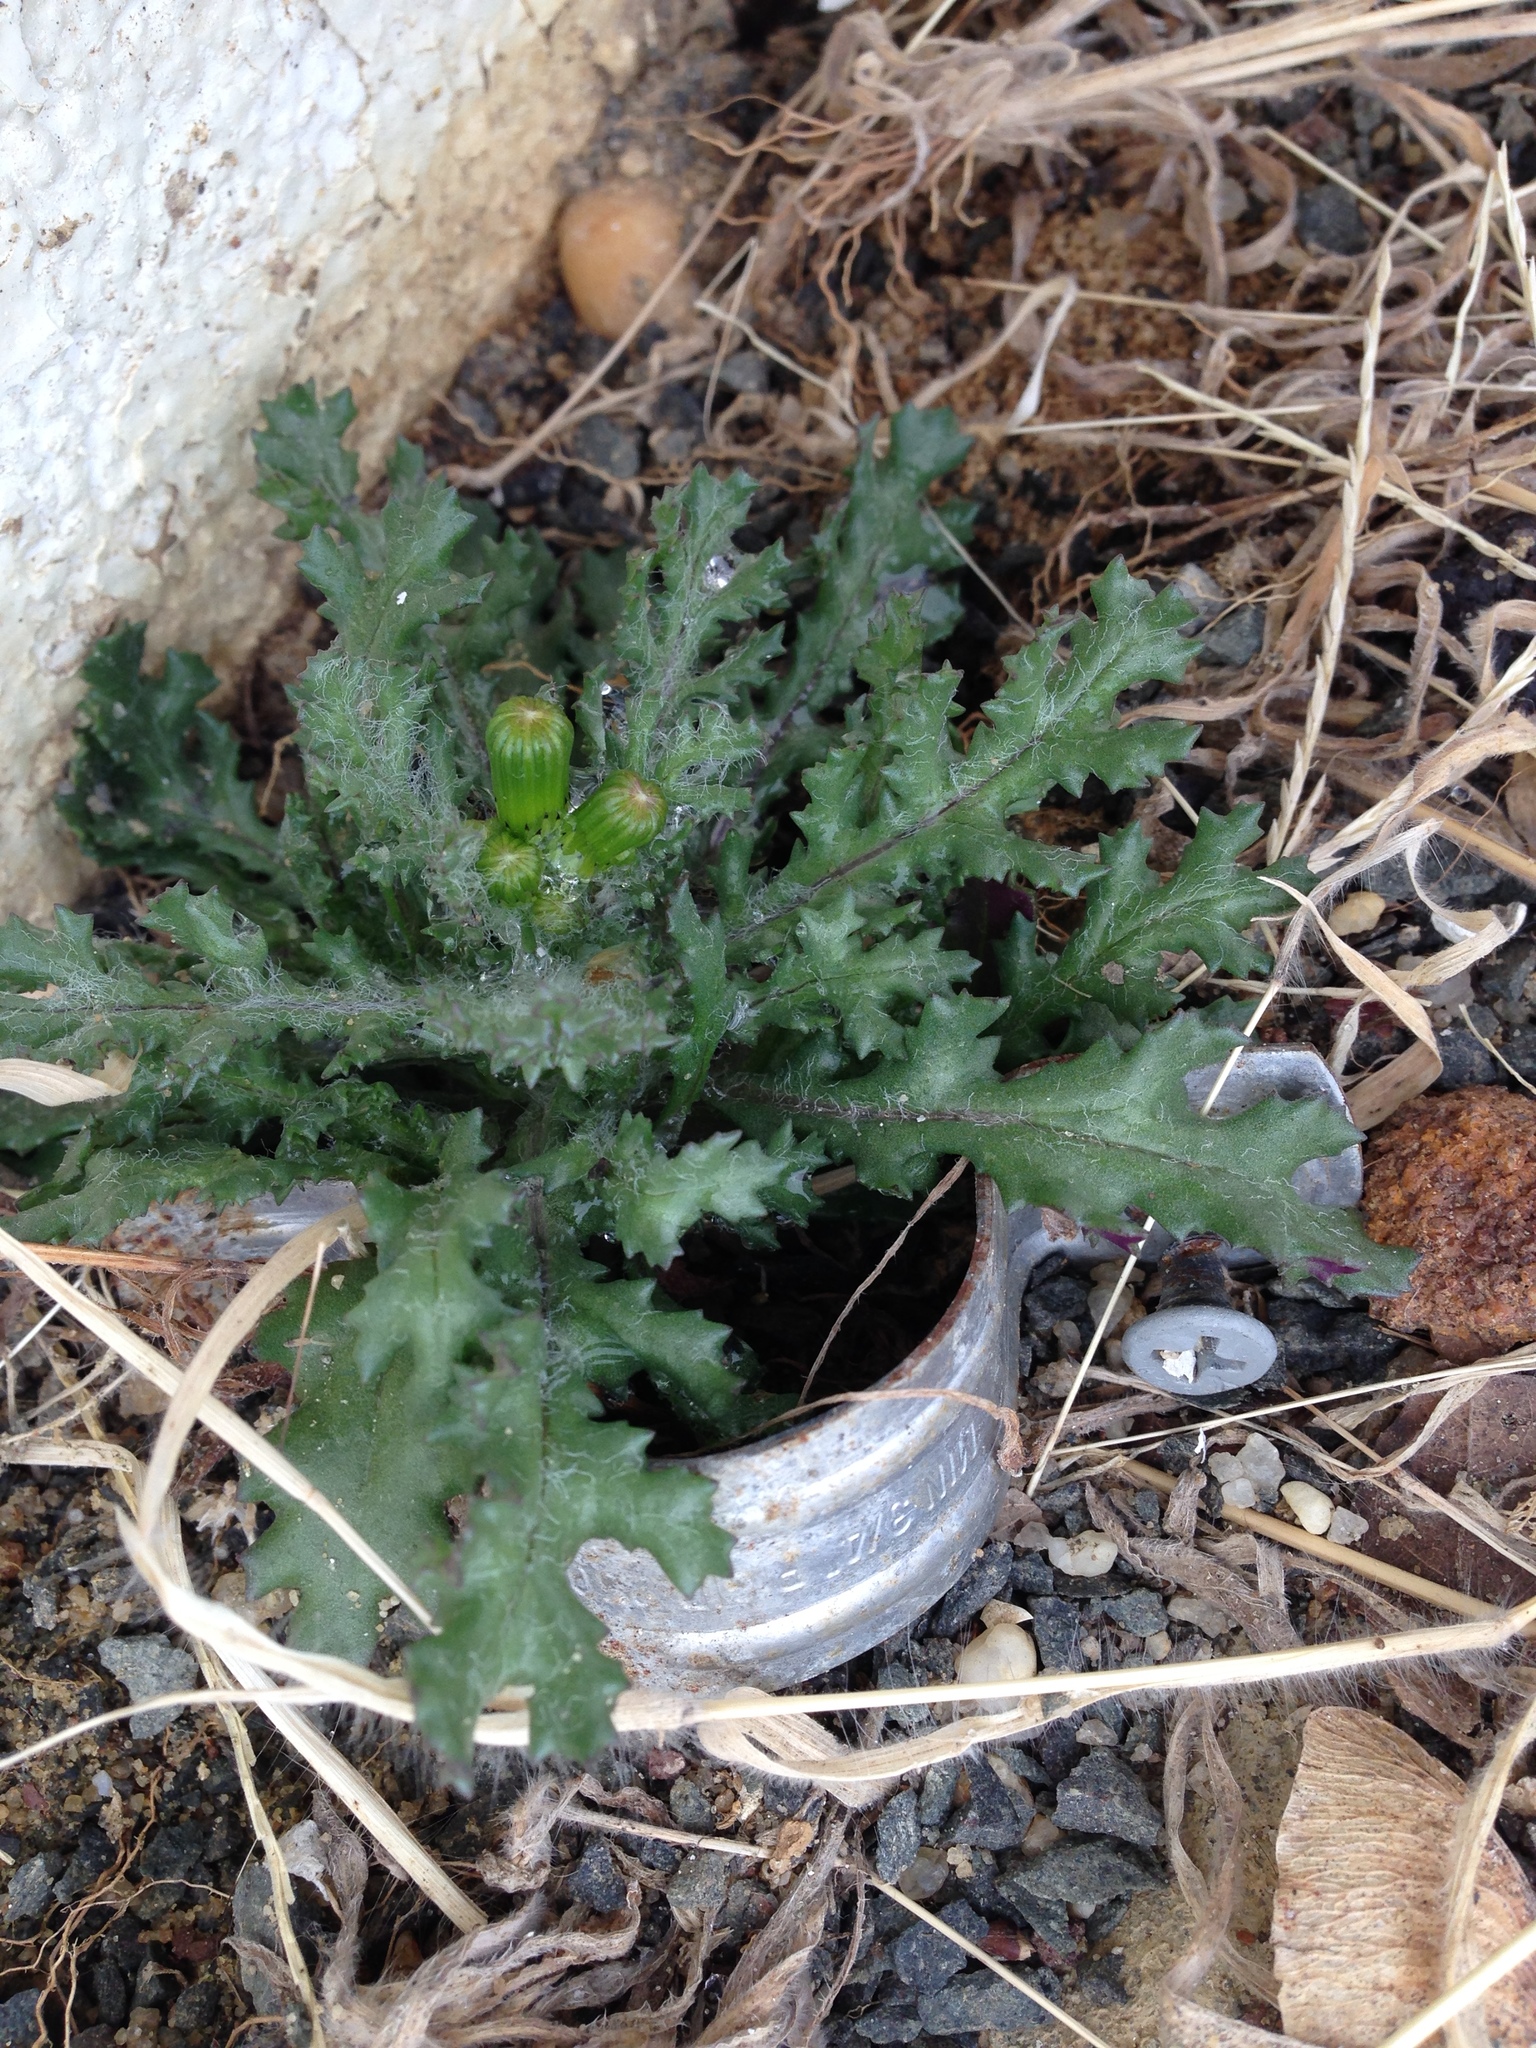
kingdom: Plantae
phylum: Tracheophyta
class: Magnoliopsida
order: Asterales
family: Asteraceae
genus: Senecio
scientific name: Senecio vulgaris
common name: Old-man-in-the-spring
